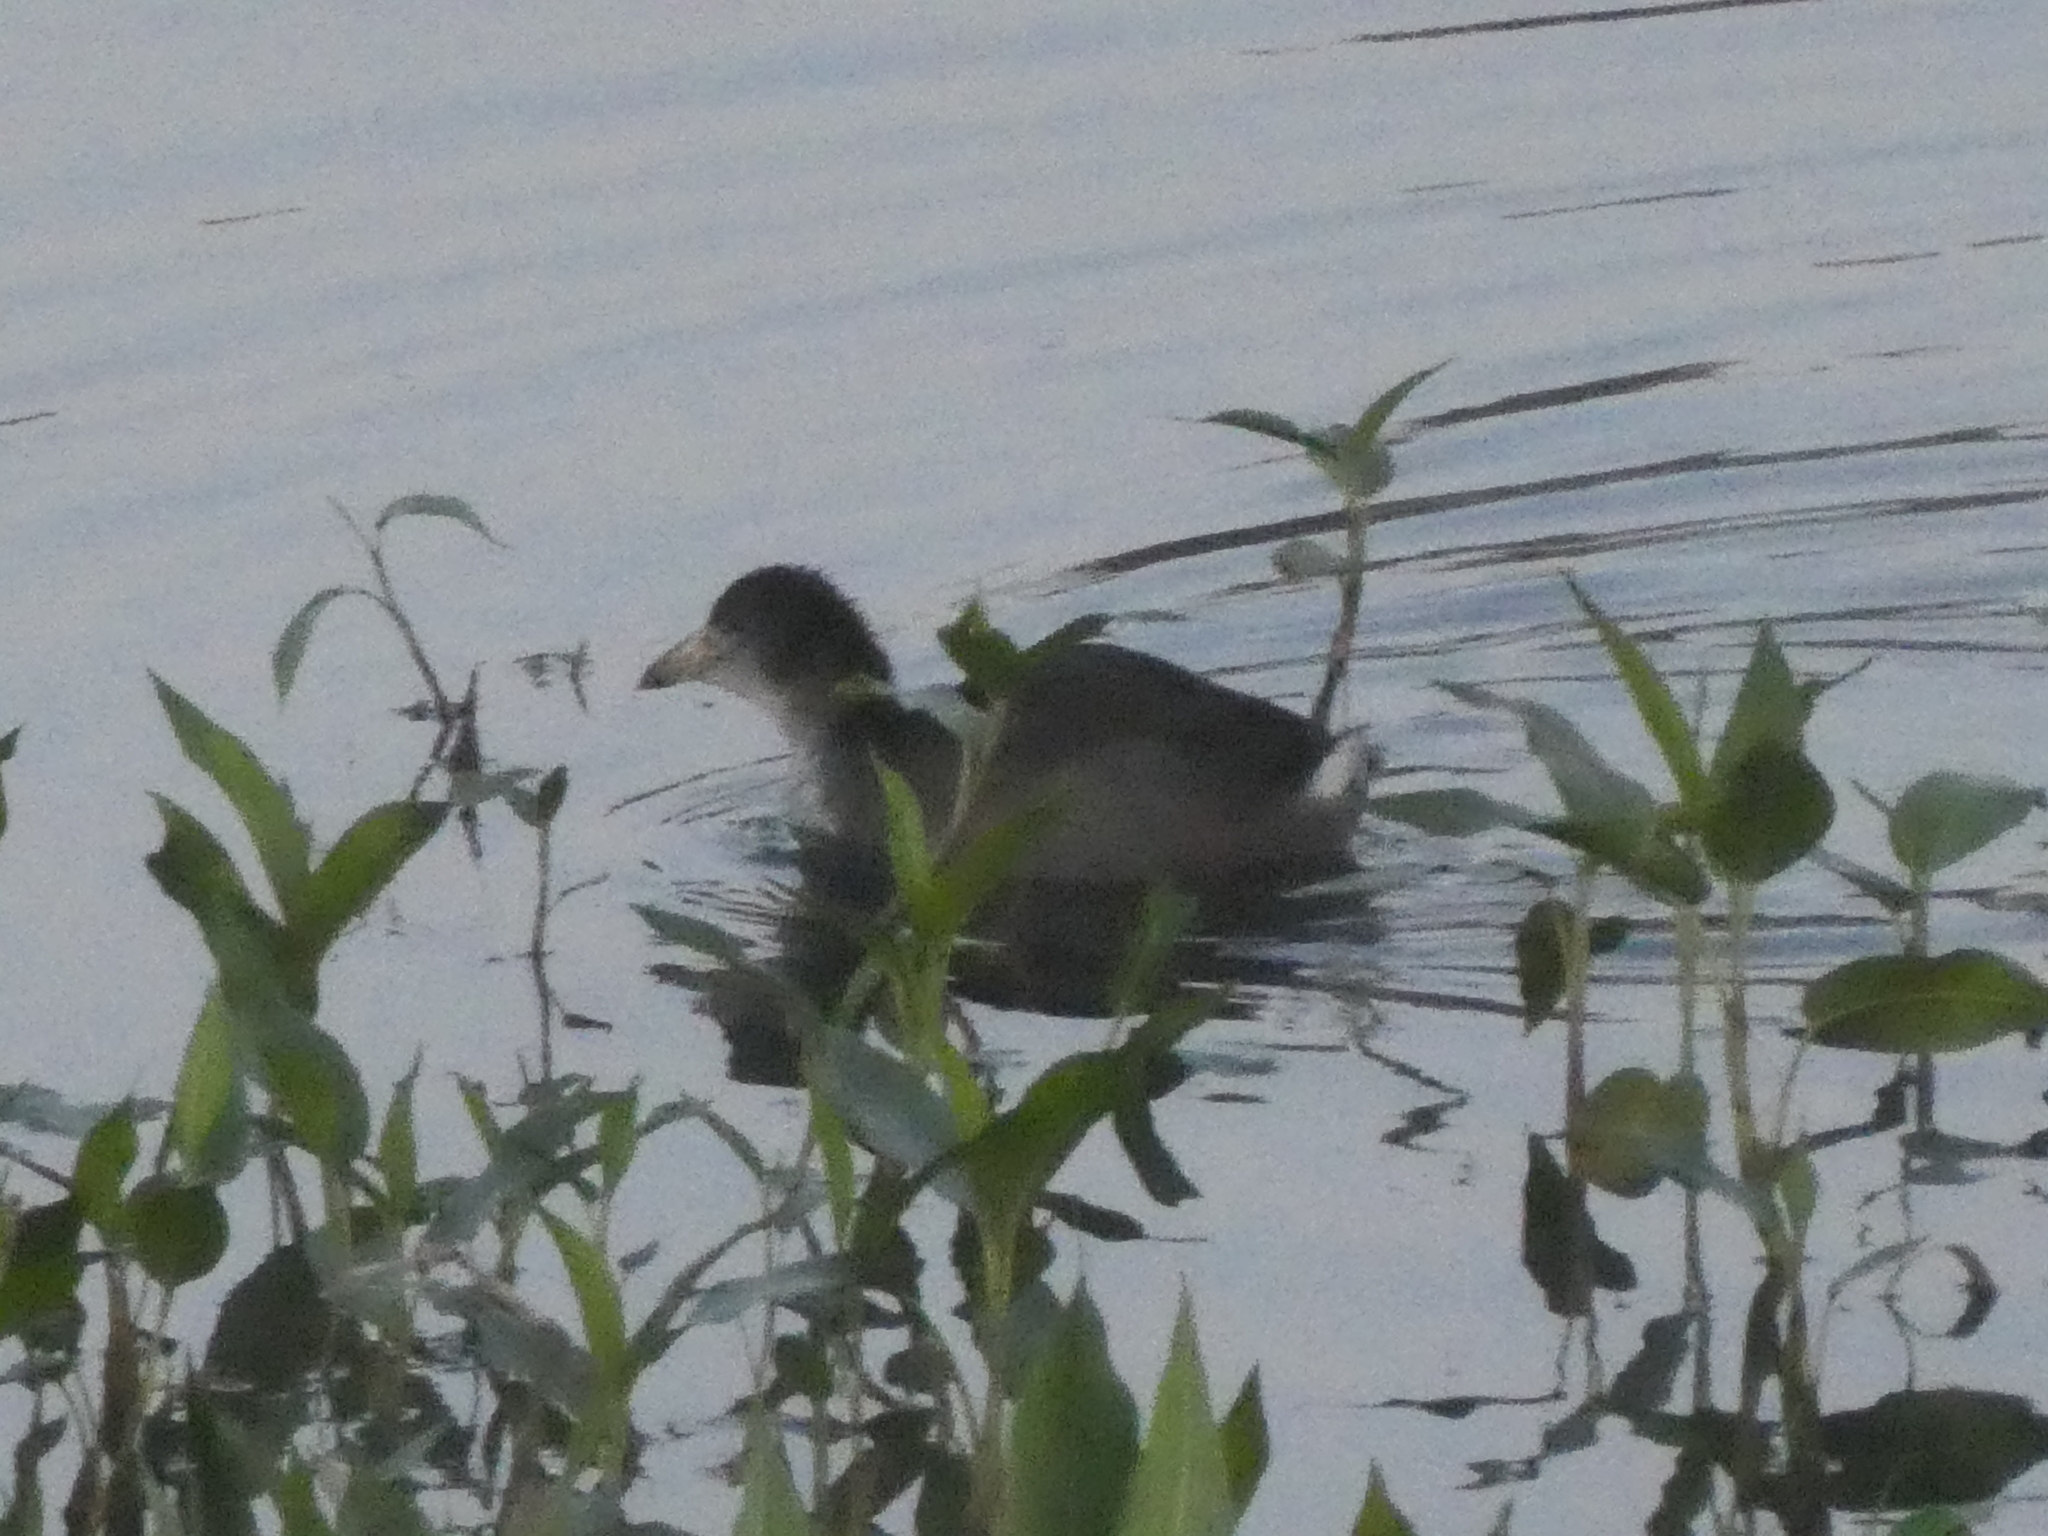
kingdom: Animalia
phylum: Chordata
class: Aves
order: Gruiformes
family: Rallidae
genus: Fulica
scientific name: Fulica americana
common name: American coot
